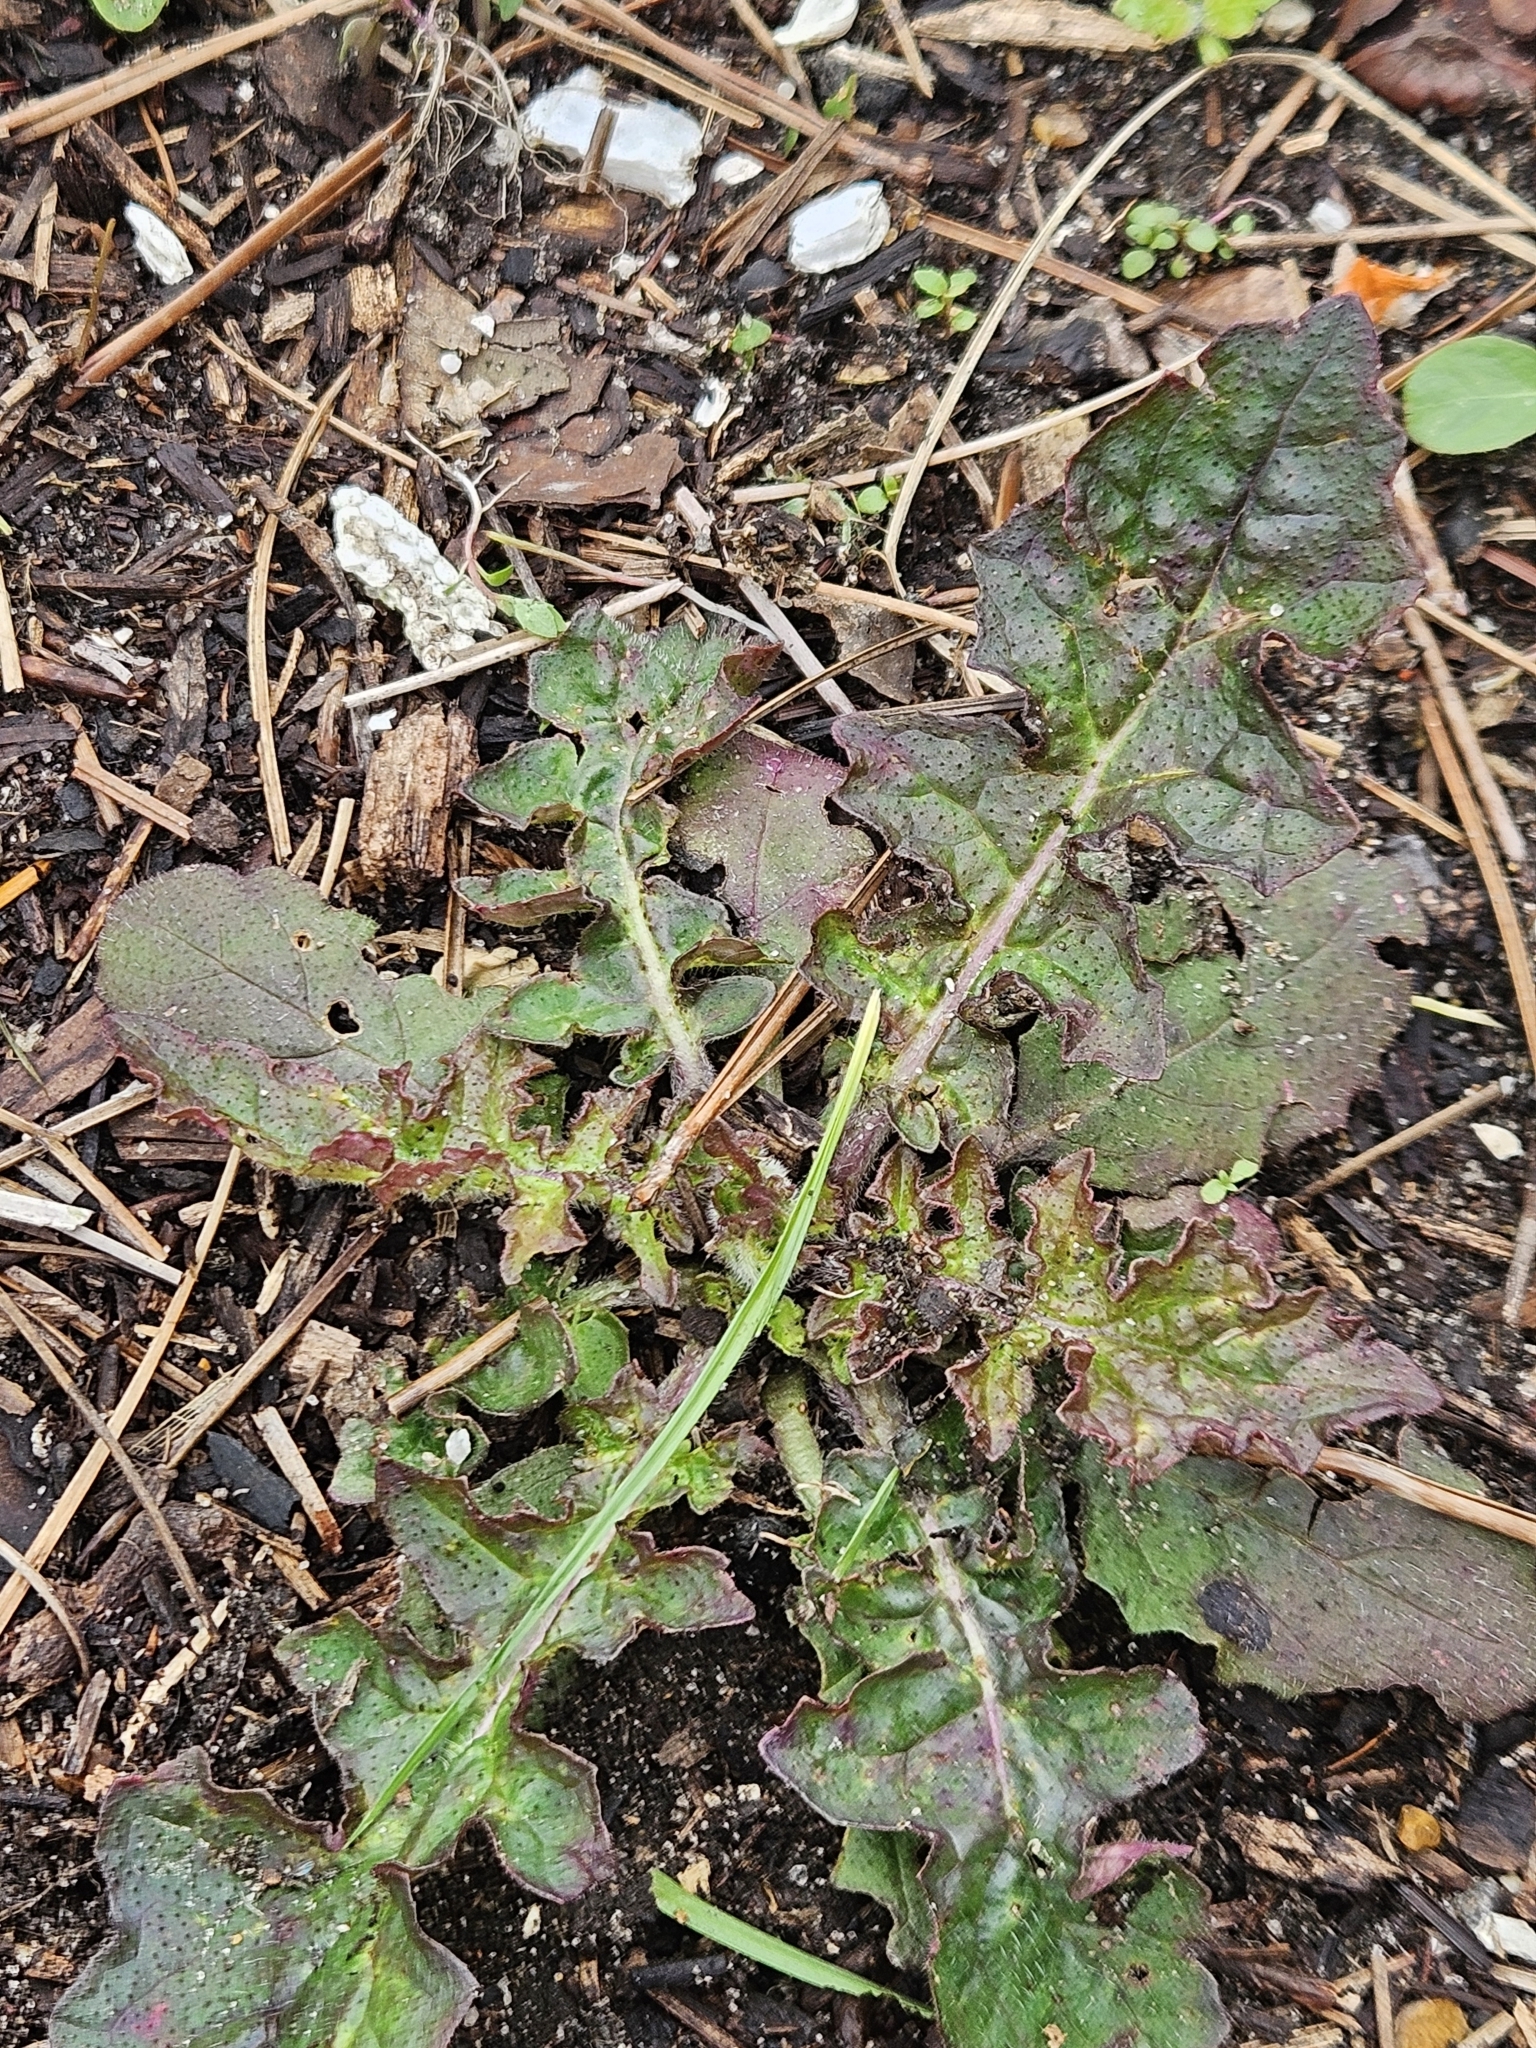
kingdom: Plantae
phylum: Tracheophyta
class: Magnoliopsida
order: Lamiales
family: Lamiaceae
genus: Salvia
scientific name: Salvia lyrata
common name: Cancerweed
